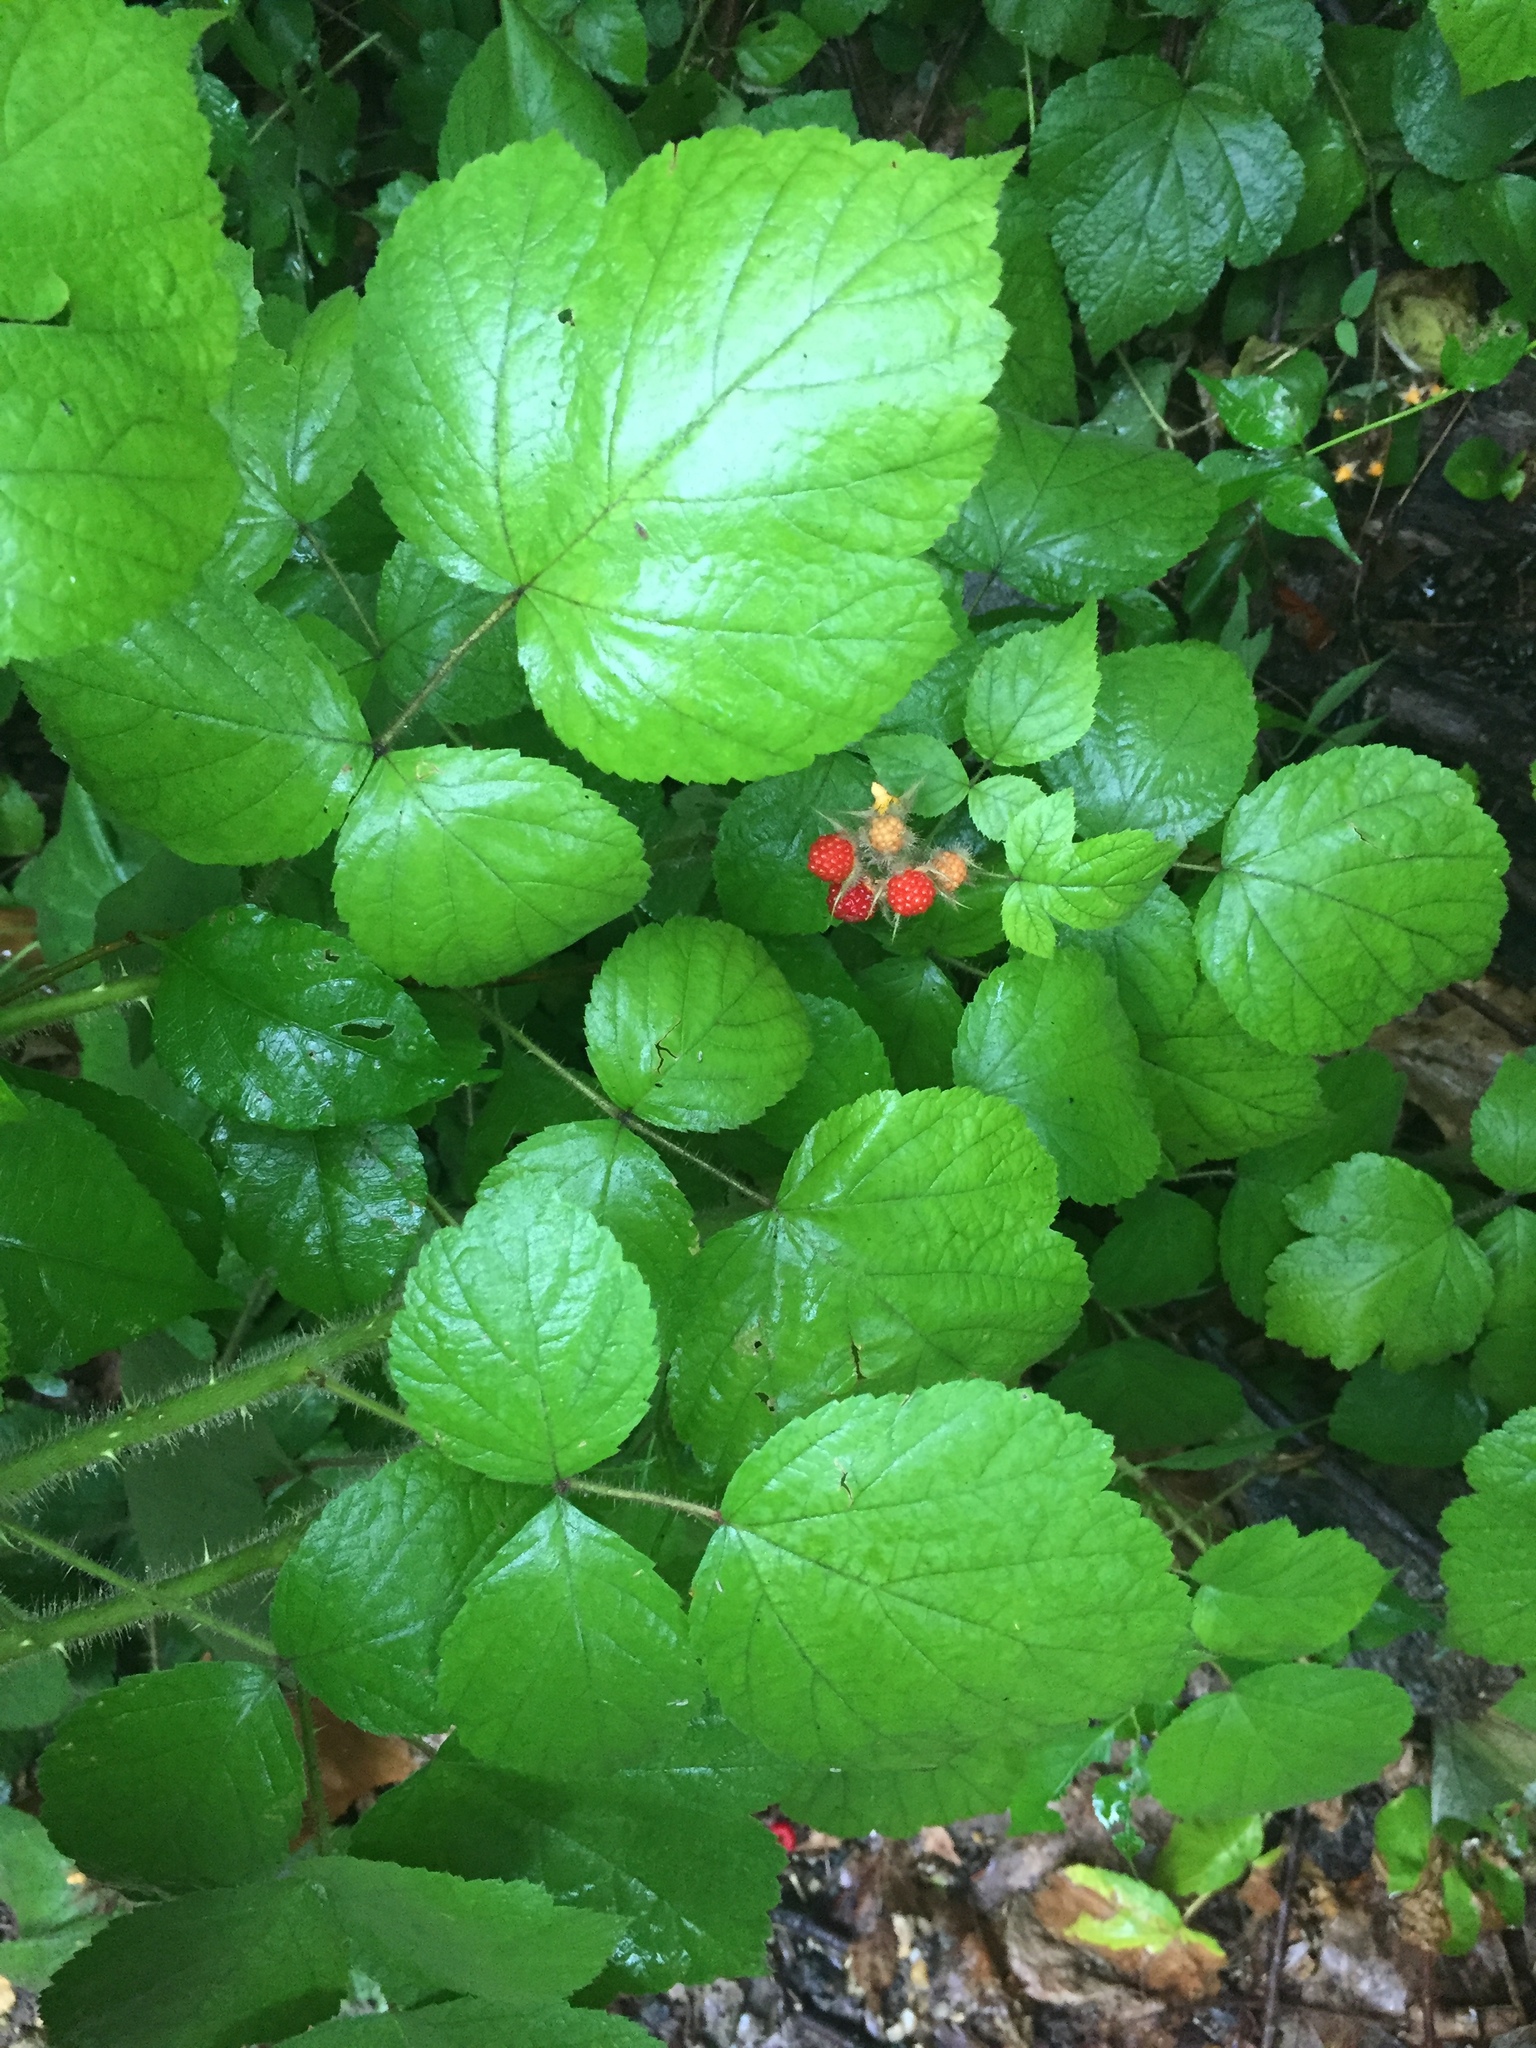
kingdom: Plantae
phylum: Tracheophyta
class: Magnoliopsida
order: Rosales
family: Rosaceae
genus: Rubus
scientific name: Rubus phoenicolasius
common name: Japanese wineberry
